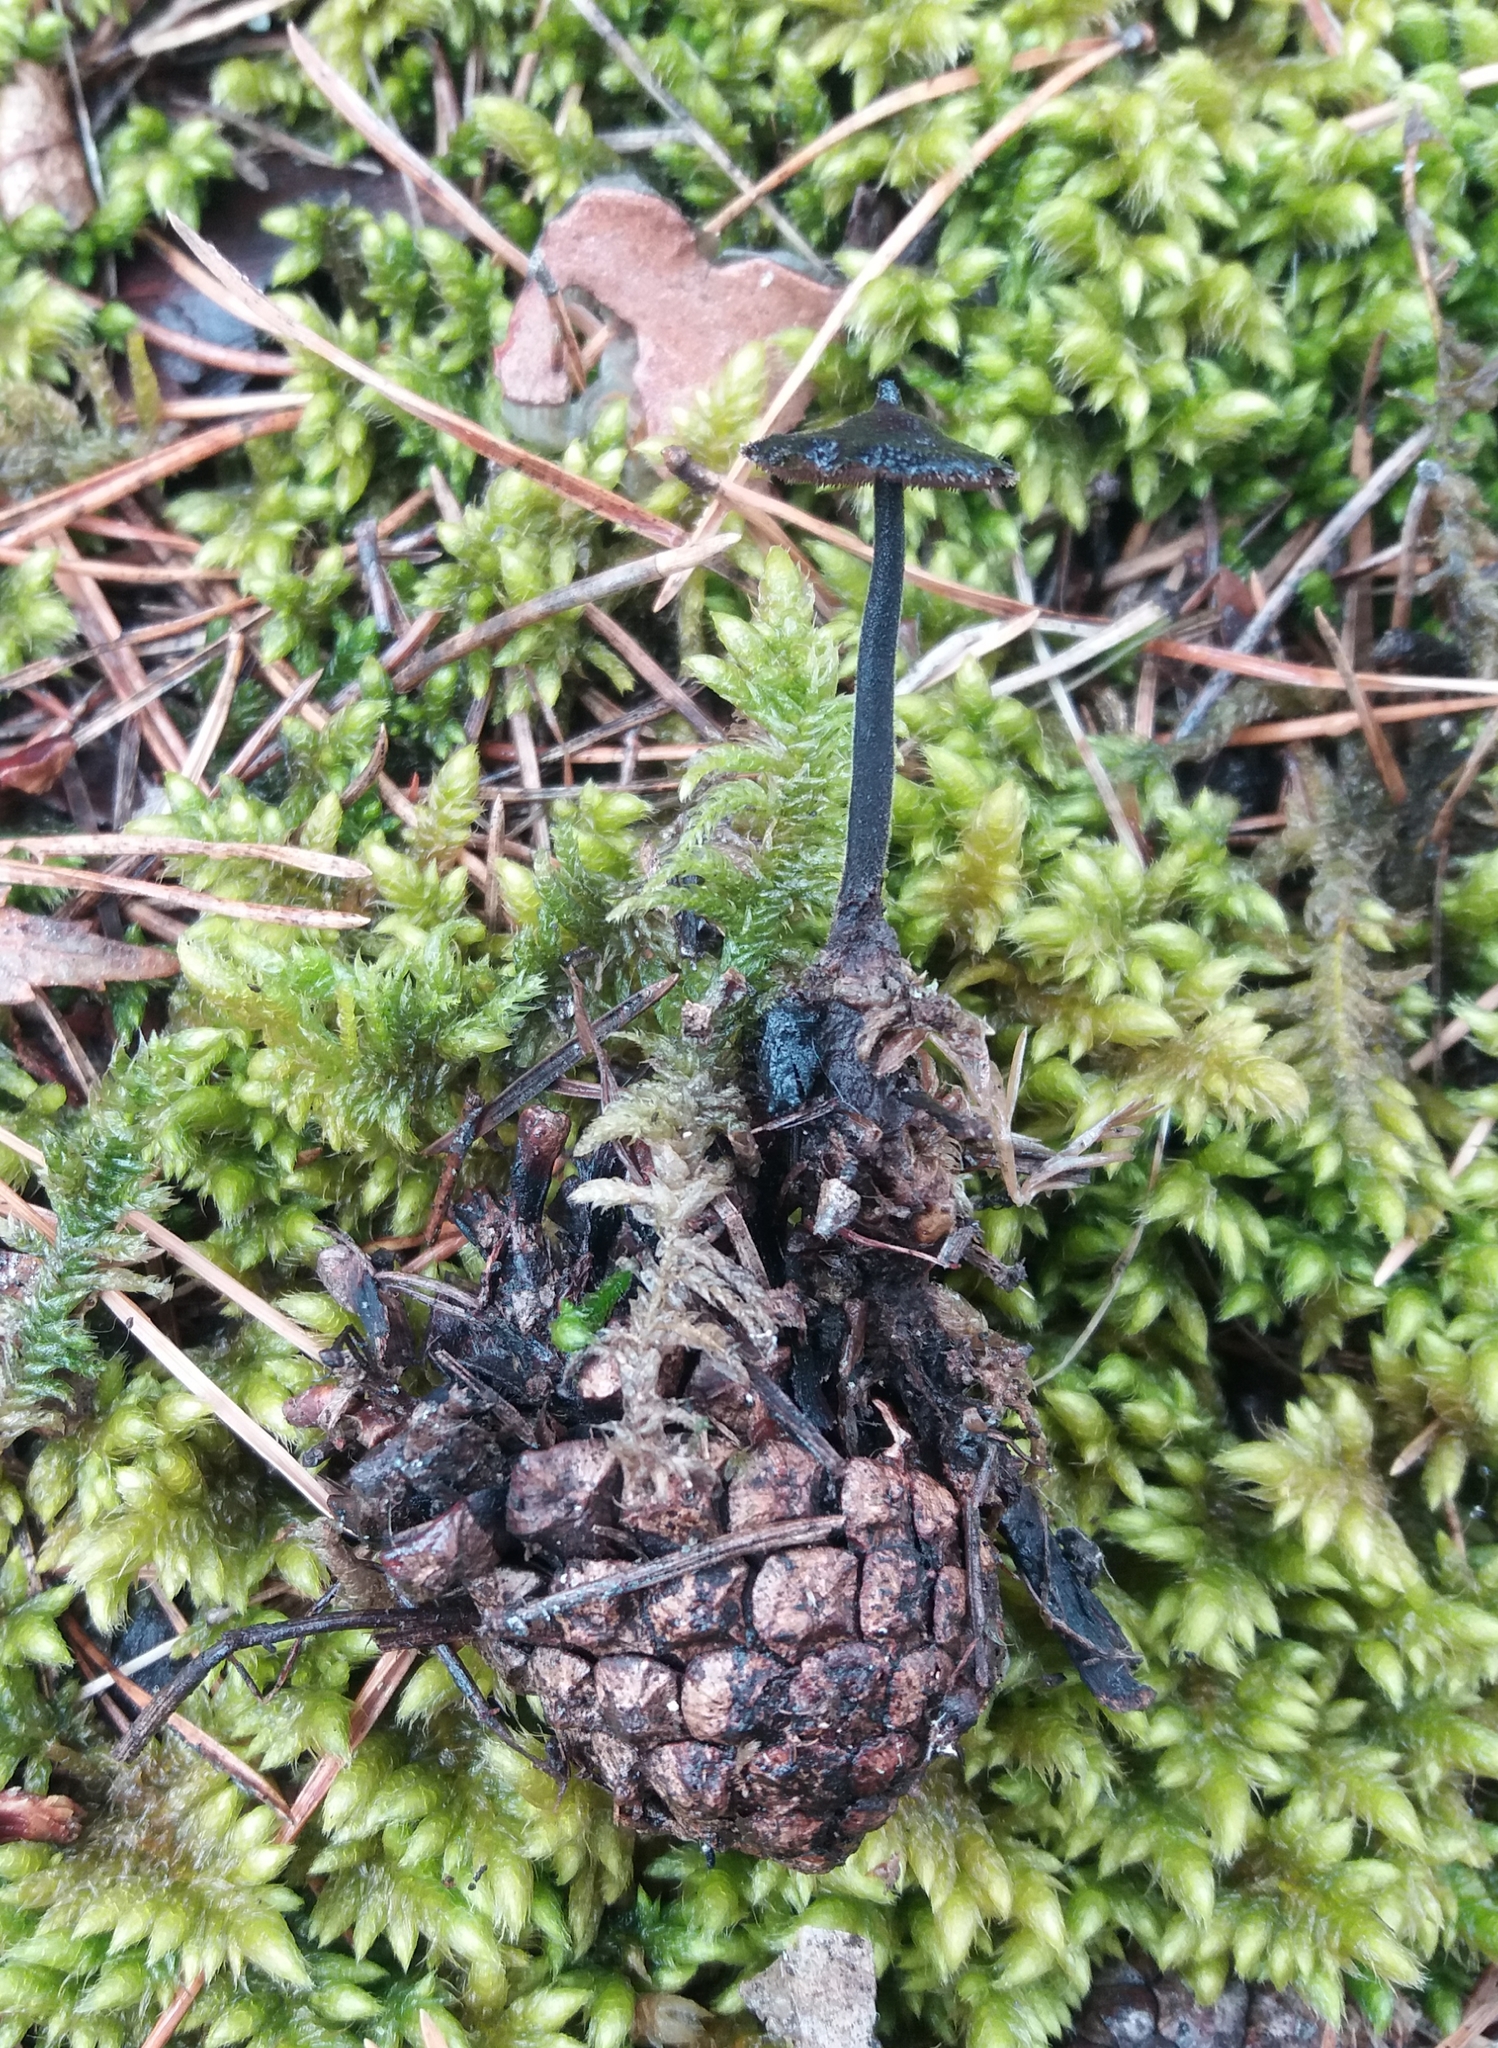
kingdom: Fungi
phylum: Basidiomycota
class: Agaricomycetes
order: Russulales
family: Auriscalpiaceae
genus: Auriscalpium
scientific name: Auriscalpium vulgare
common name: Earpick fungus
